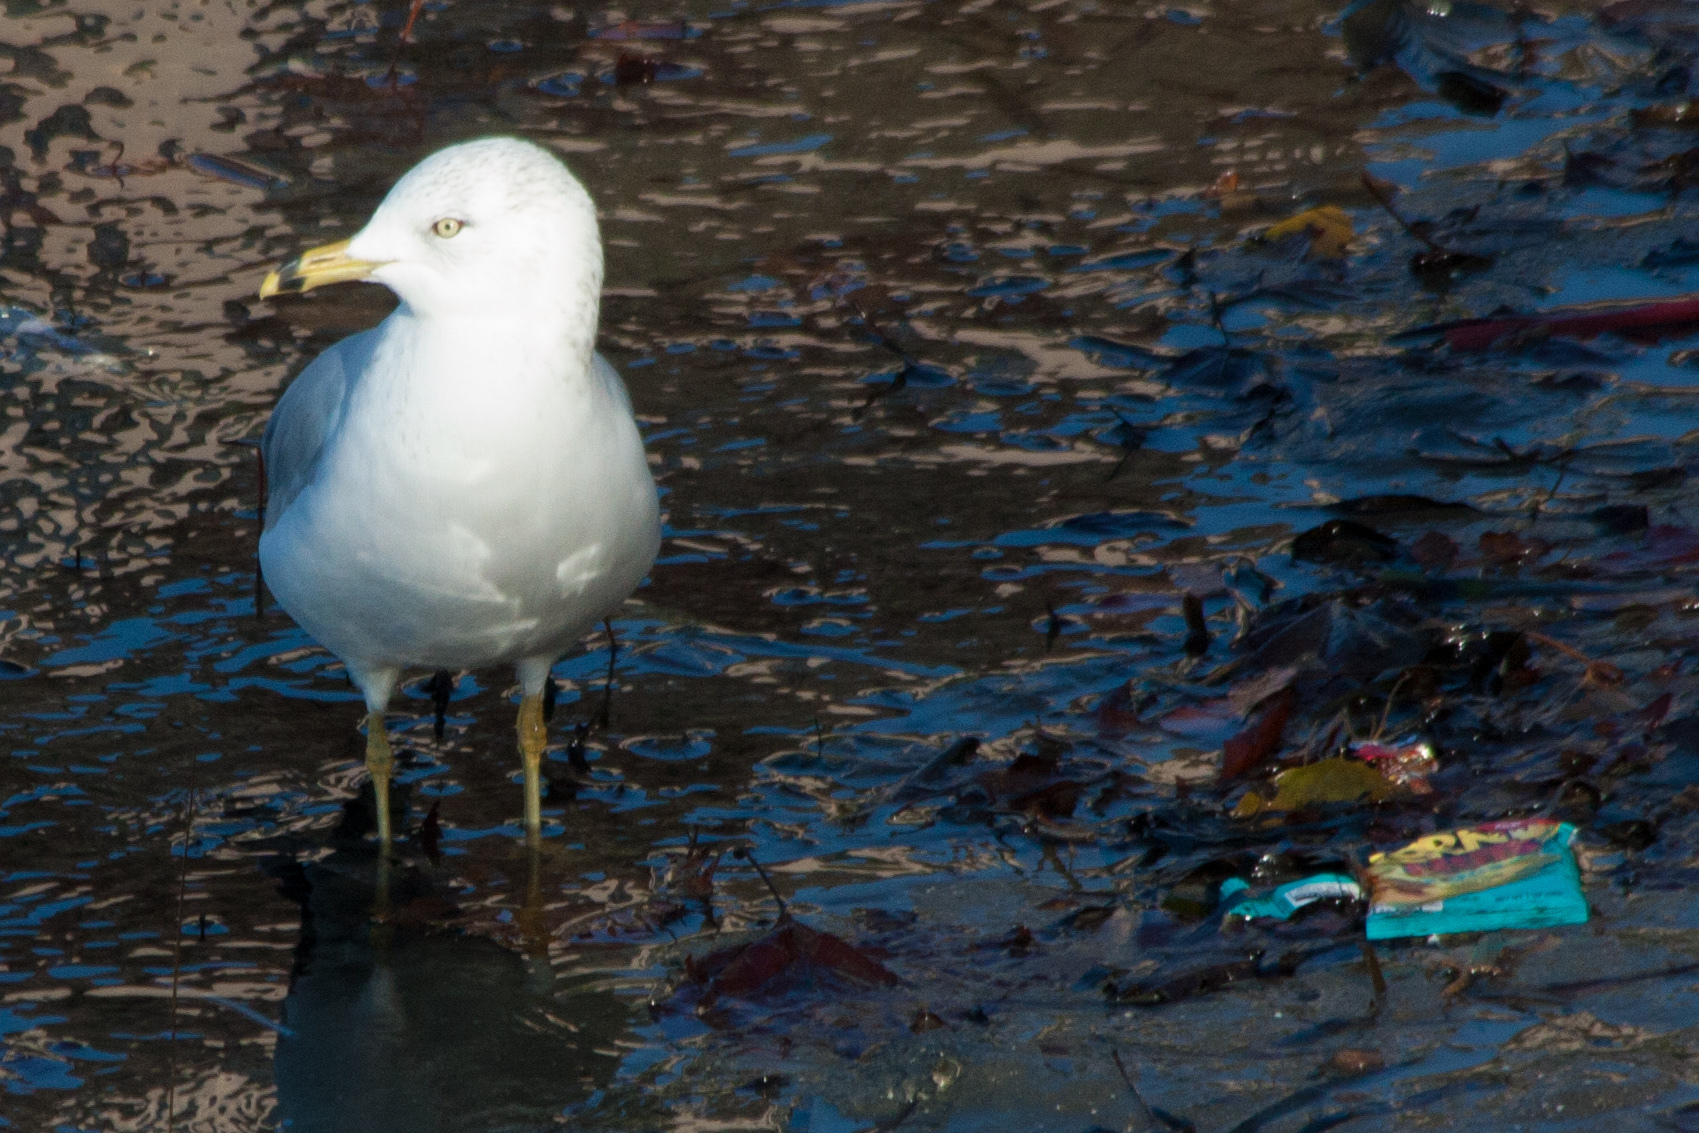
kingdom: Animalia
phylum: Chordata
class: Aves
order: Charadriiformes
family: Laridae
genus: Larus
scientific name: Larus delawarensis
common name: Ring-billed gull
